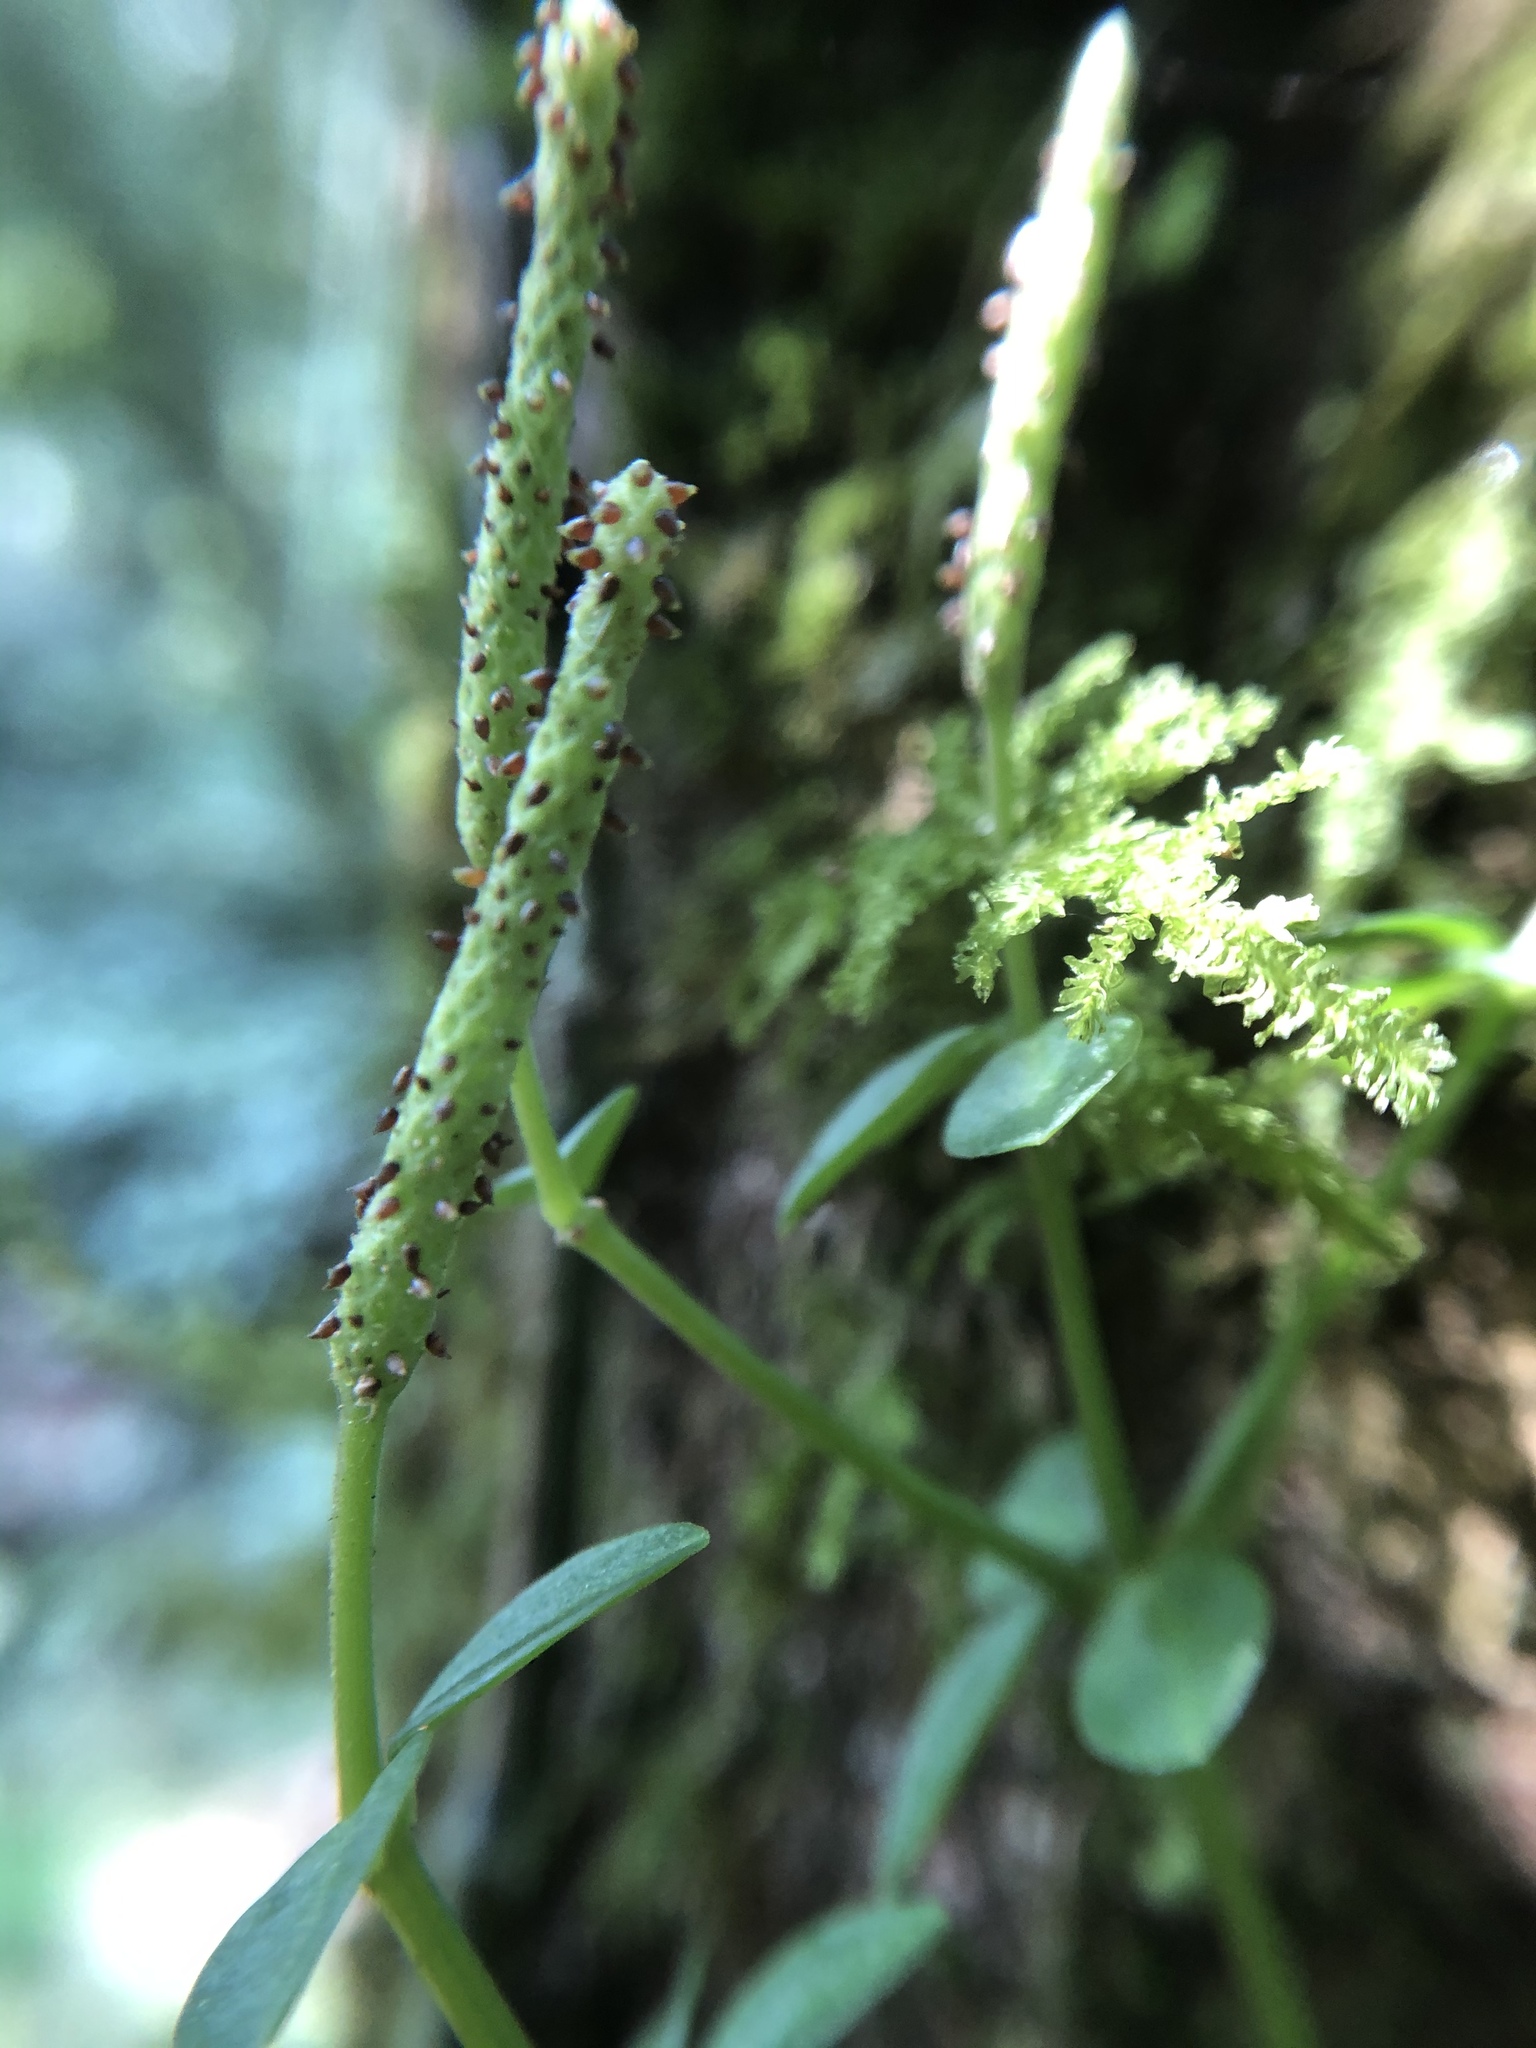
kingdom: Plantae
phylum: Tracheophyta
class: Magnoliopsida
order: Piperales
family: Piperaceae
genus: Peperomia
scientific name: Peperomia tetraphylla
